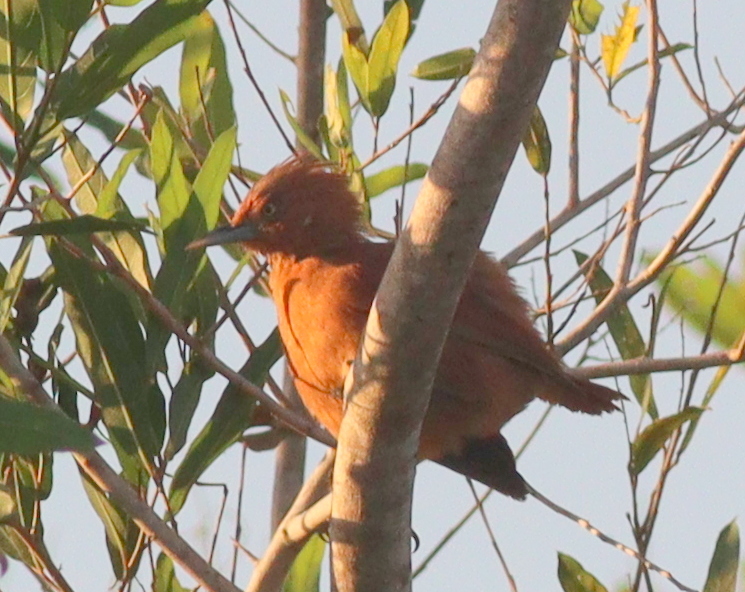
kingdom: Animalia
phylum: Chordata
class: Aves
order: Passeriformes
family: Furnariidae
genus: Pseudoseisura
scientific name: Pseudoseisura unirufa
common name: Grey-crested cacholote
